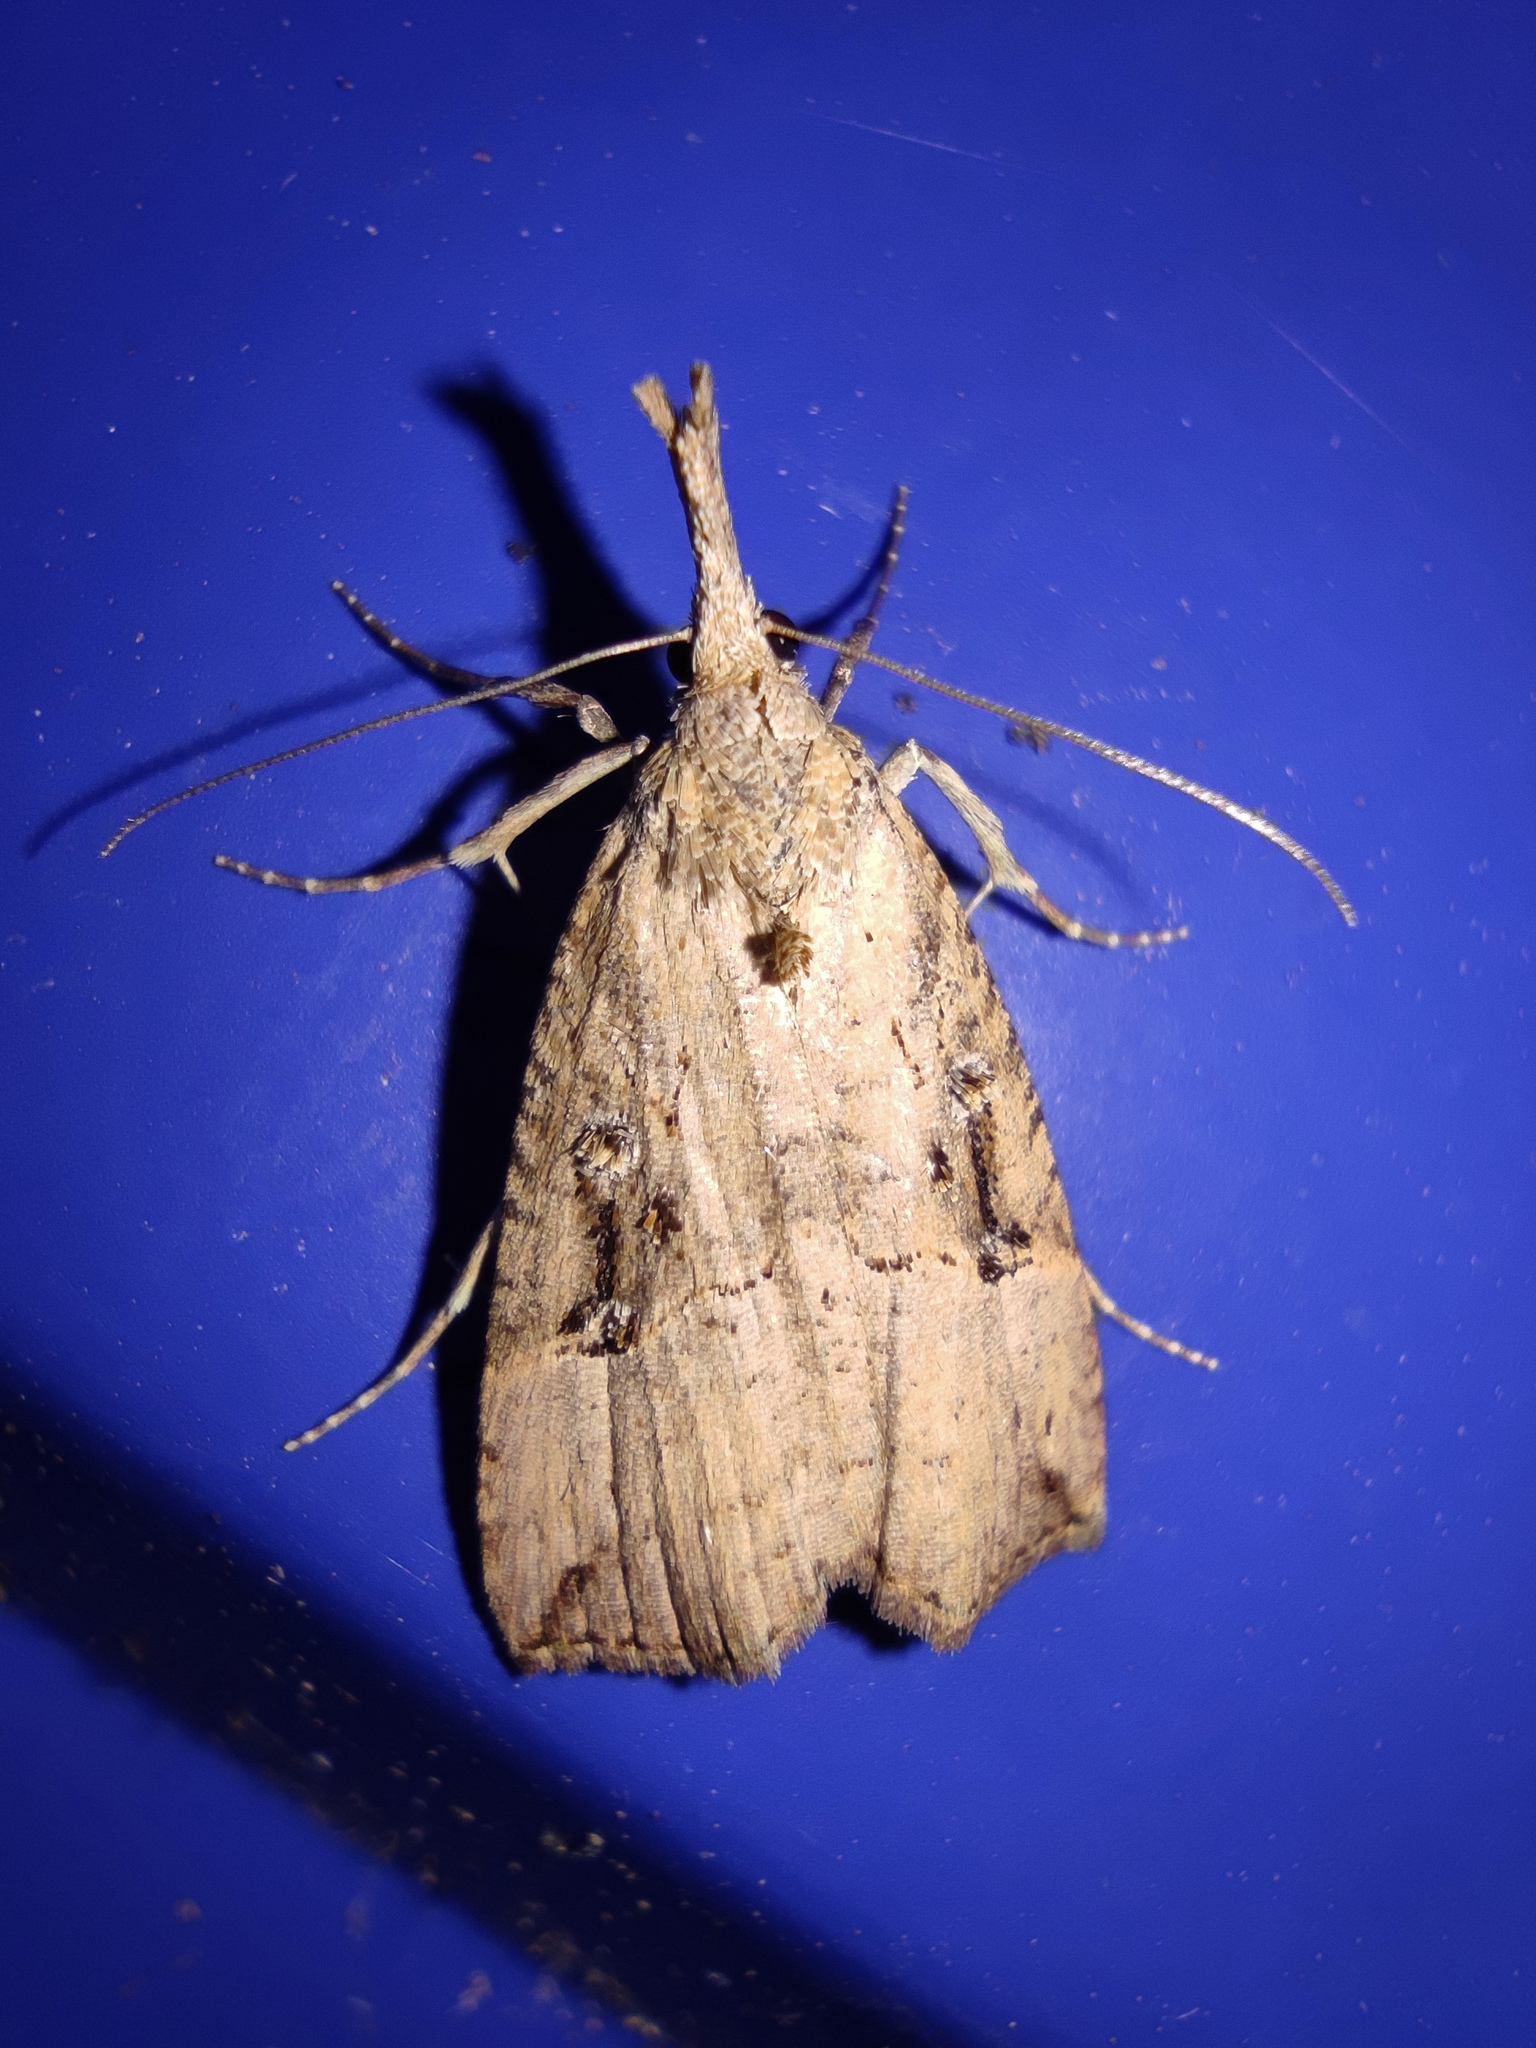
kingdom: Animalia
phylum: Arthropoda
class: Insecta
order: Lepidoptera
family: Erebidae
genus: Hypena
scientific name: Hypena rostralis
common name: Buttoned snout
